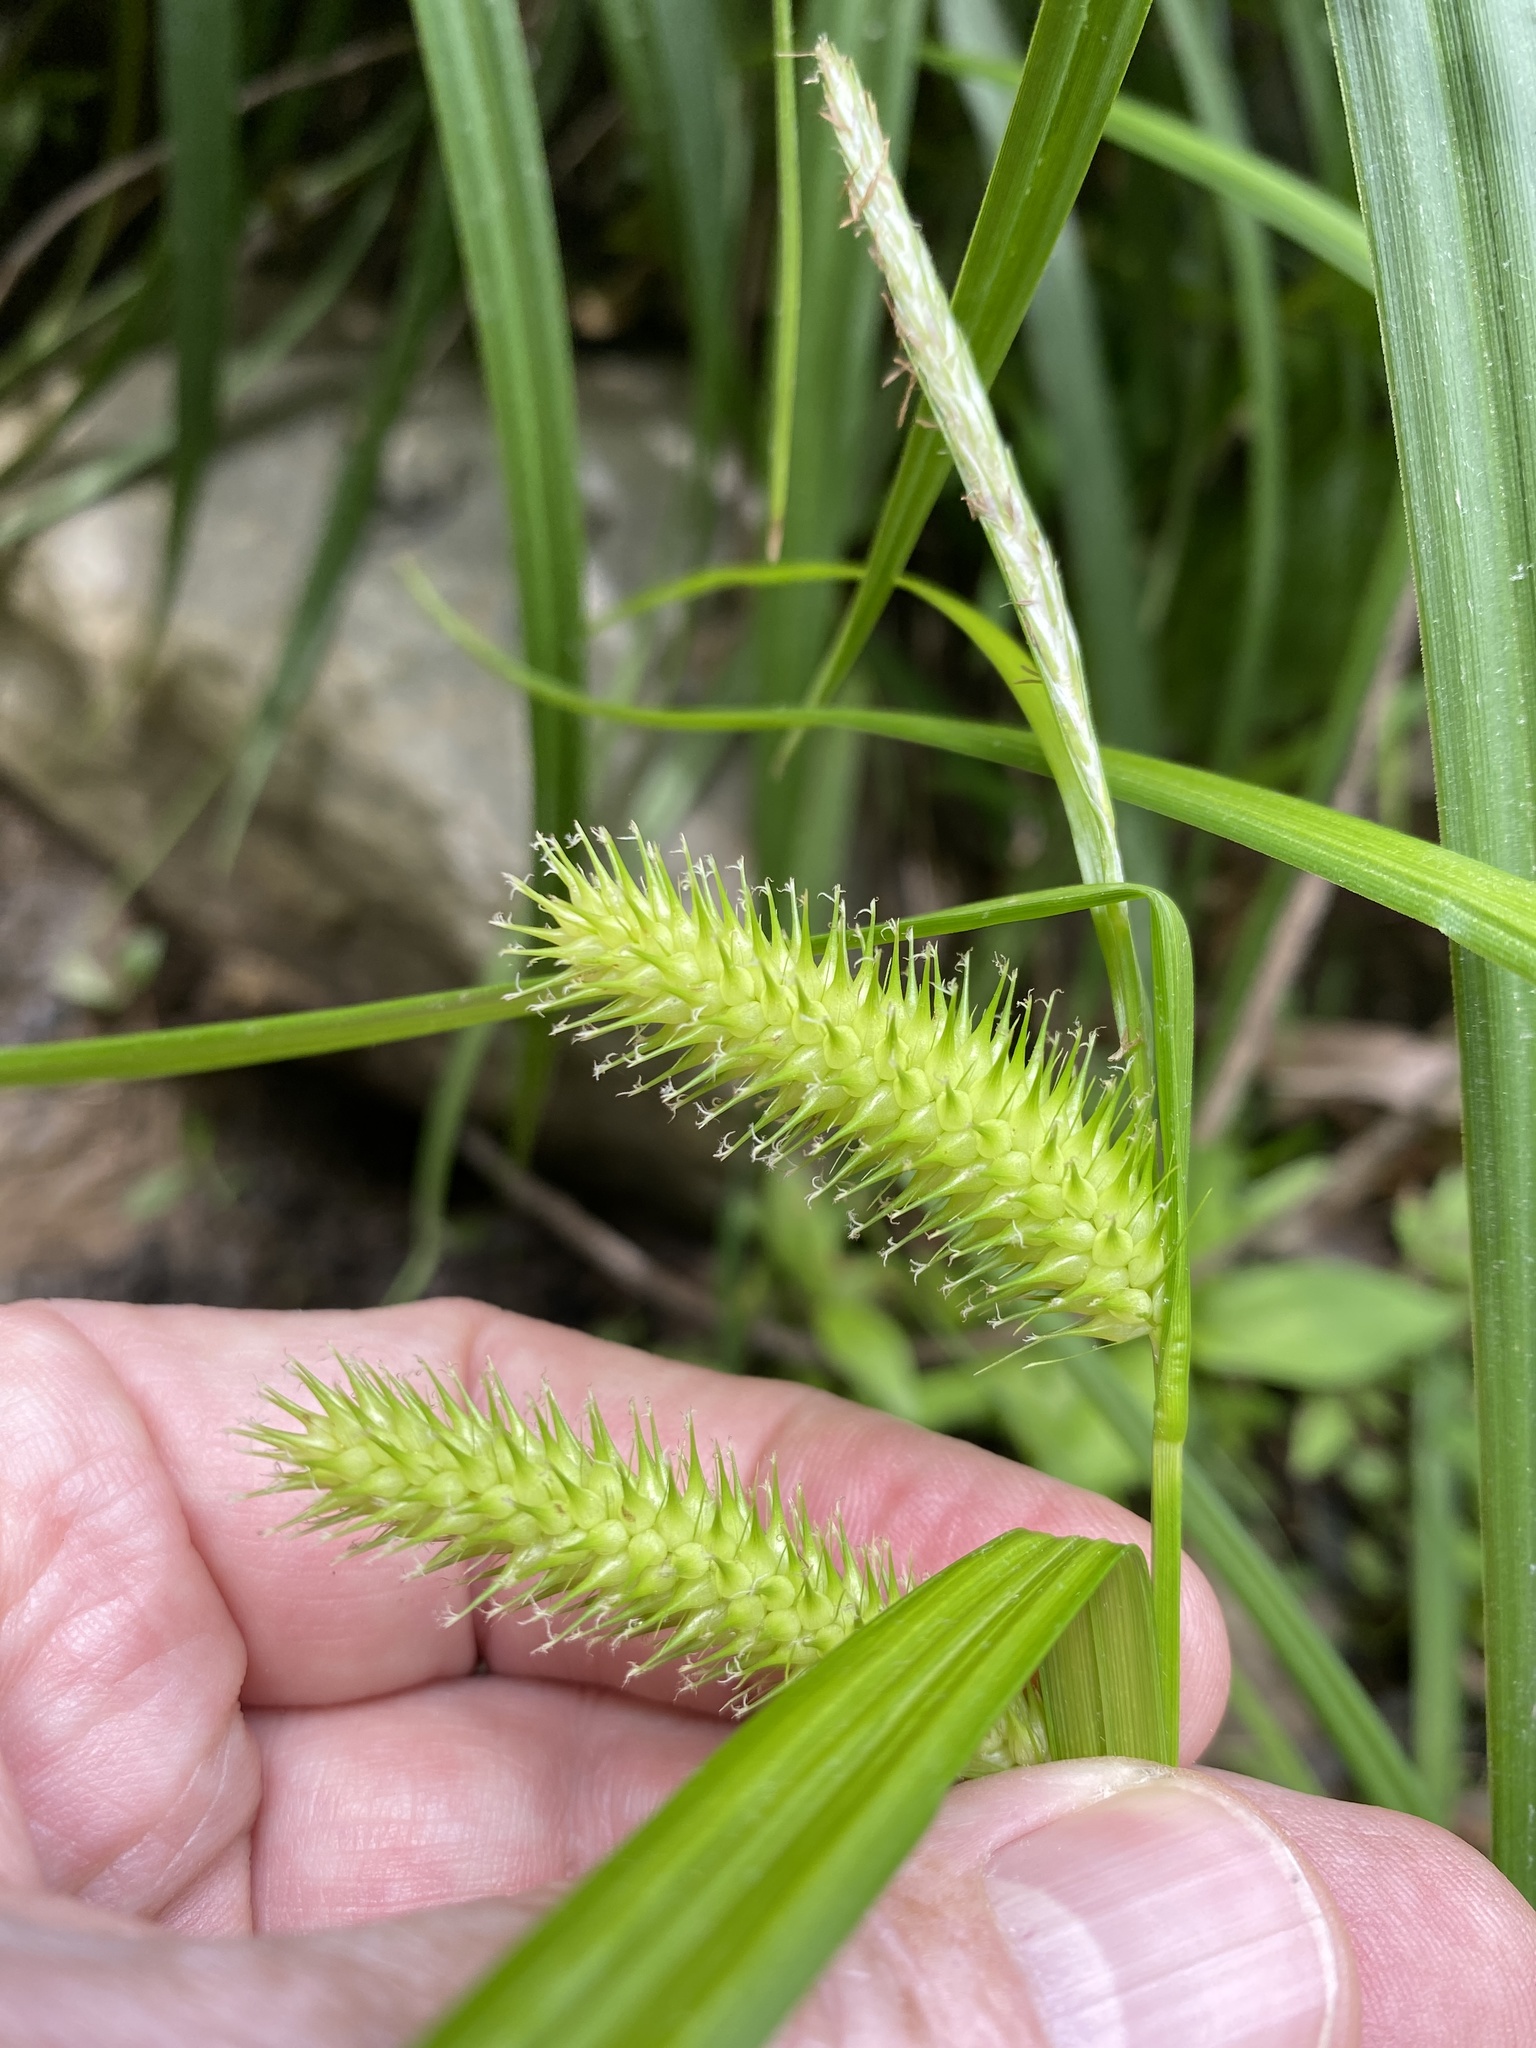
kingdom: Plantae
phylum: Tracheophyta
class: Liliopsida
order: Poales
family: Cyperaceae
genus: Carex
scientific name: Carex lurida
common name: Sallow sedge
